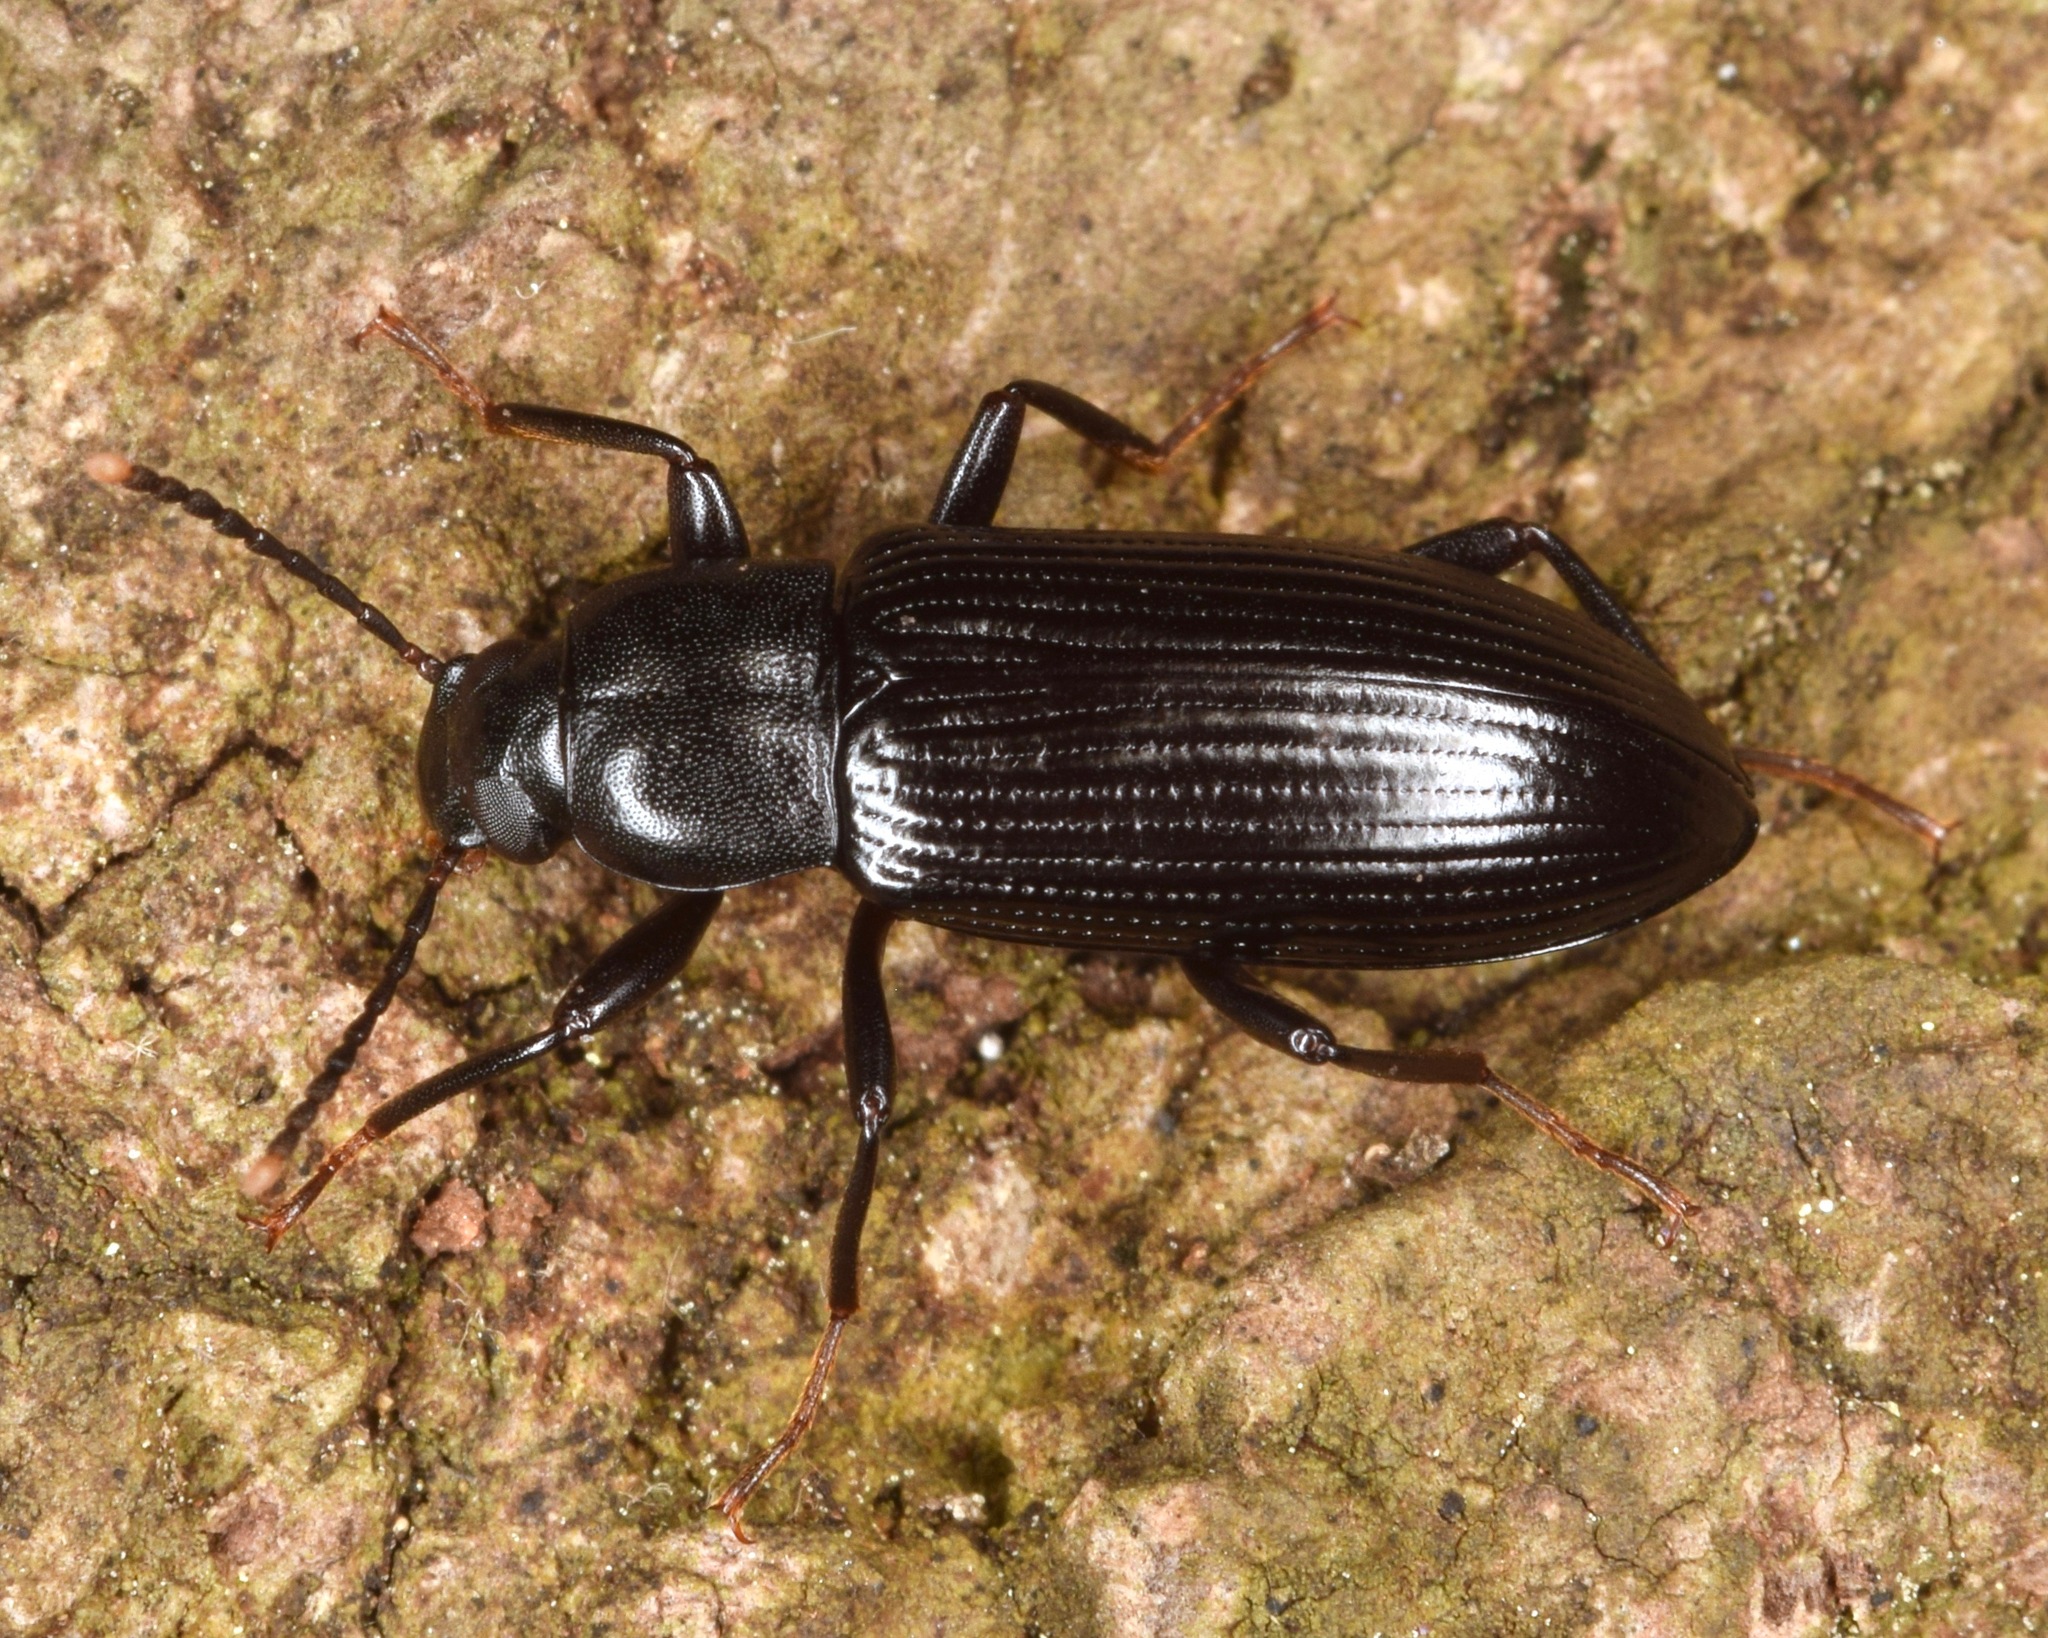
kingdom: Animalia
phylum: Arthropoda
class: Insecta
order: Coleoptera
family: Tenebrionidae
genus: Strongylium
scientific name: Strongylium terminatum
